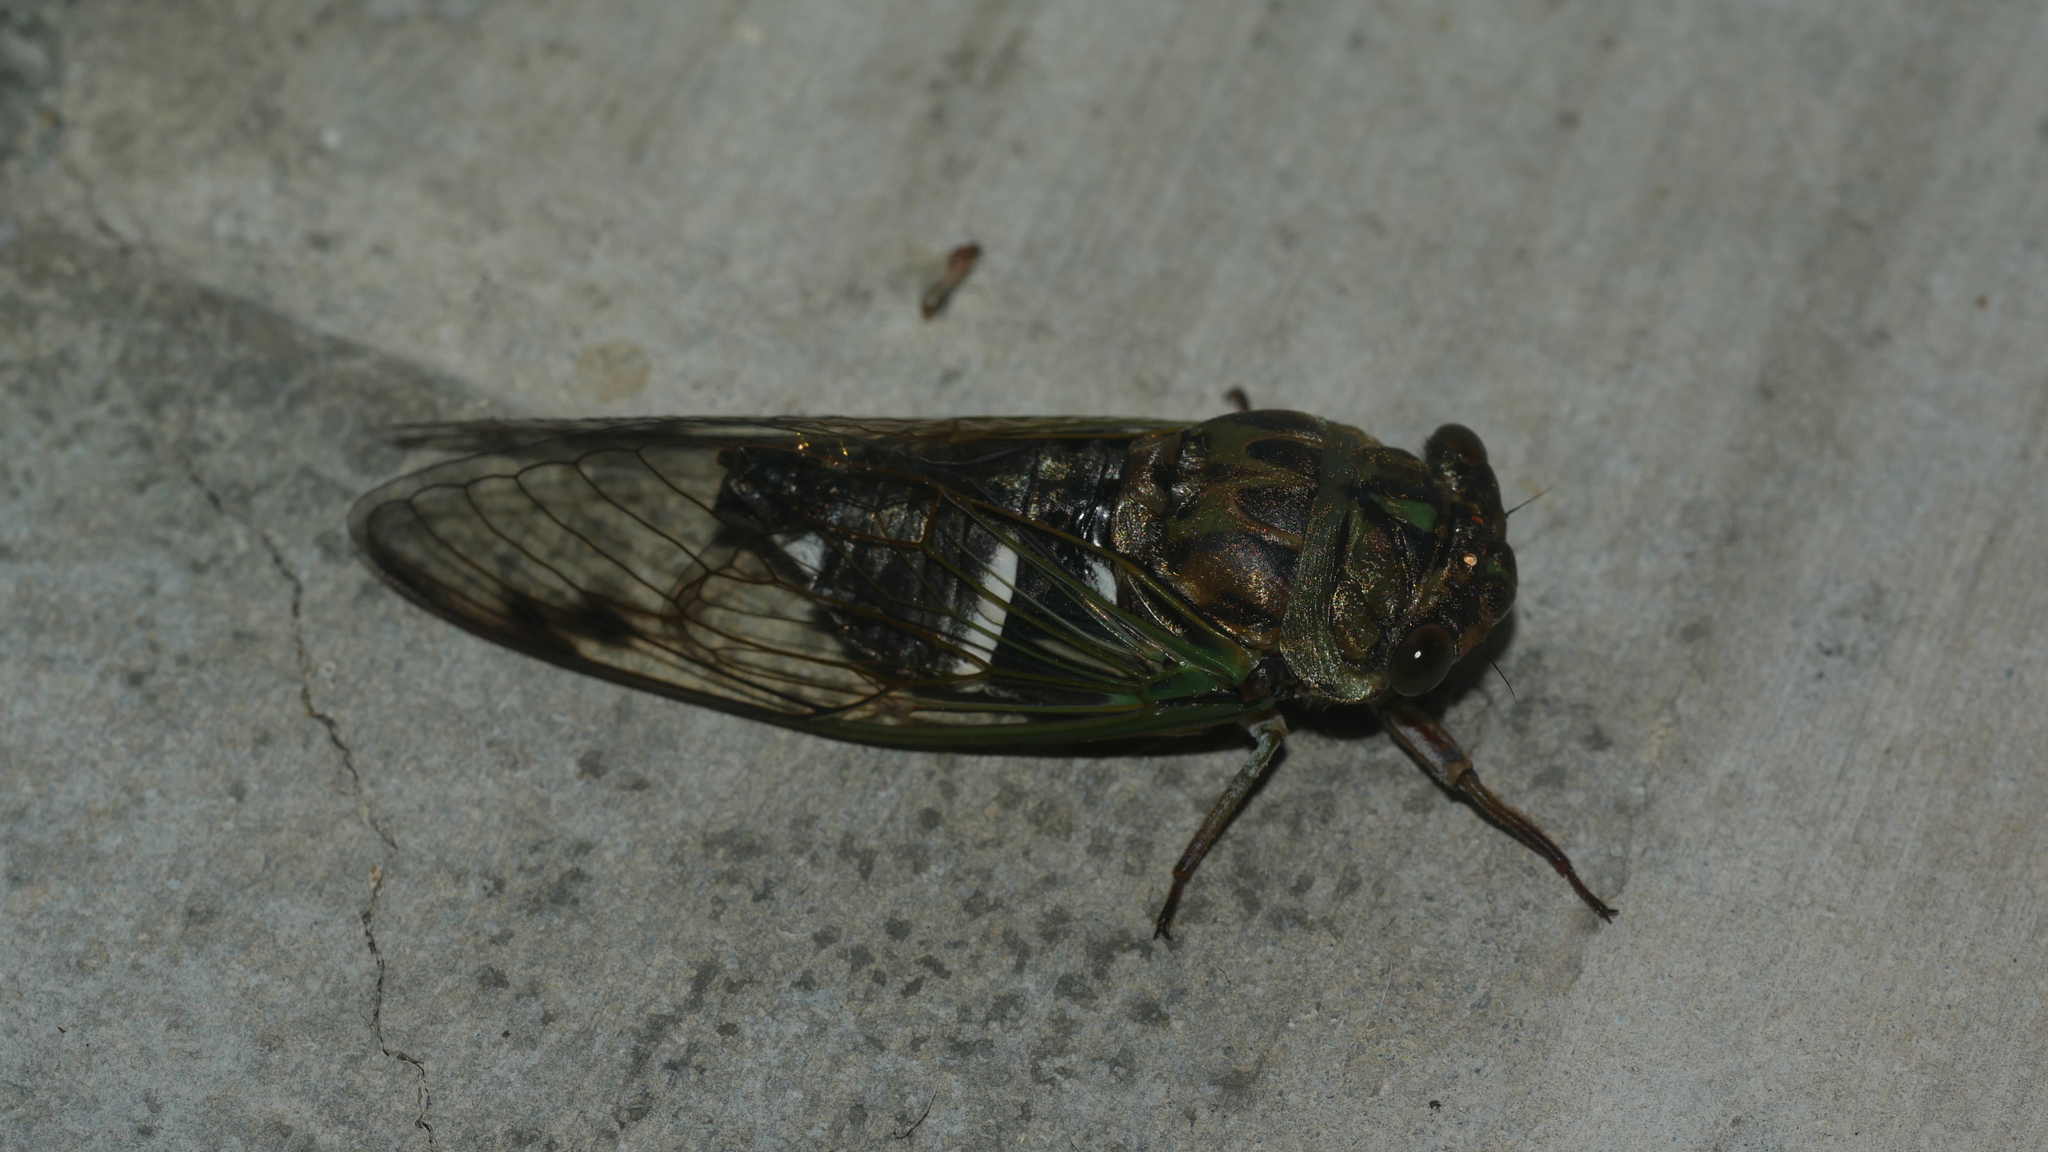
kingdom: Animalia
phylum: Arthropoda
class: Insecta
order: Hemiptera
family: Cicadidae
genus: Neotibicen
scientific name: Neotibicen latifasciatus
